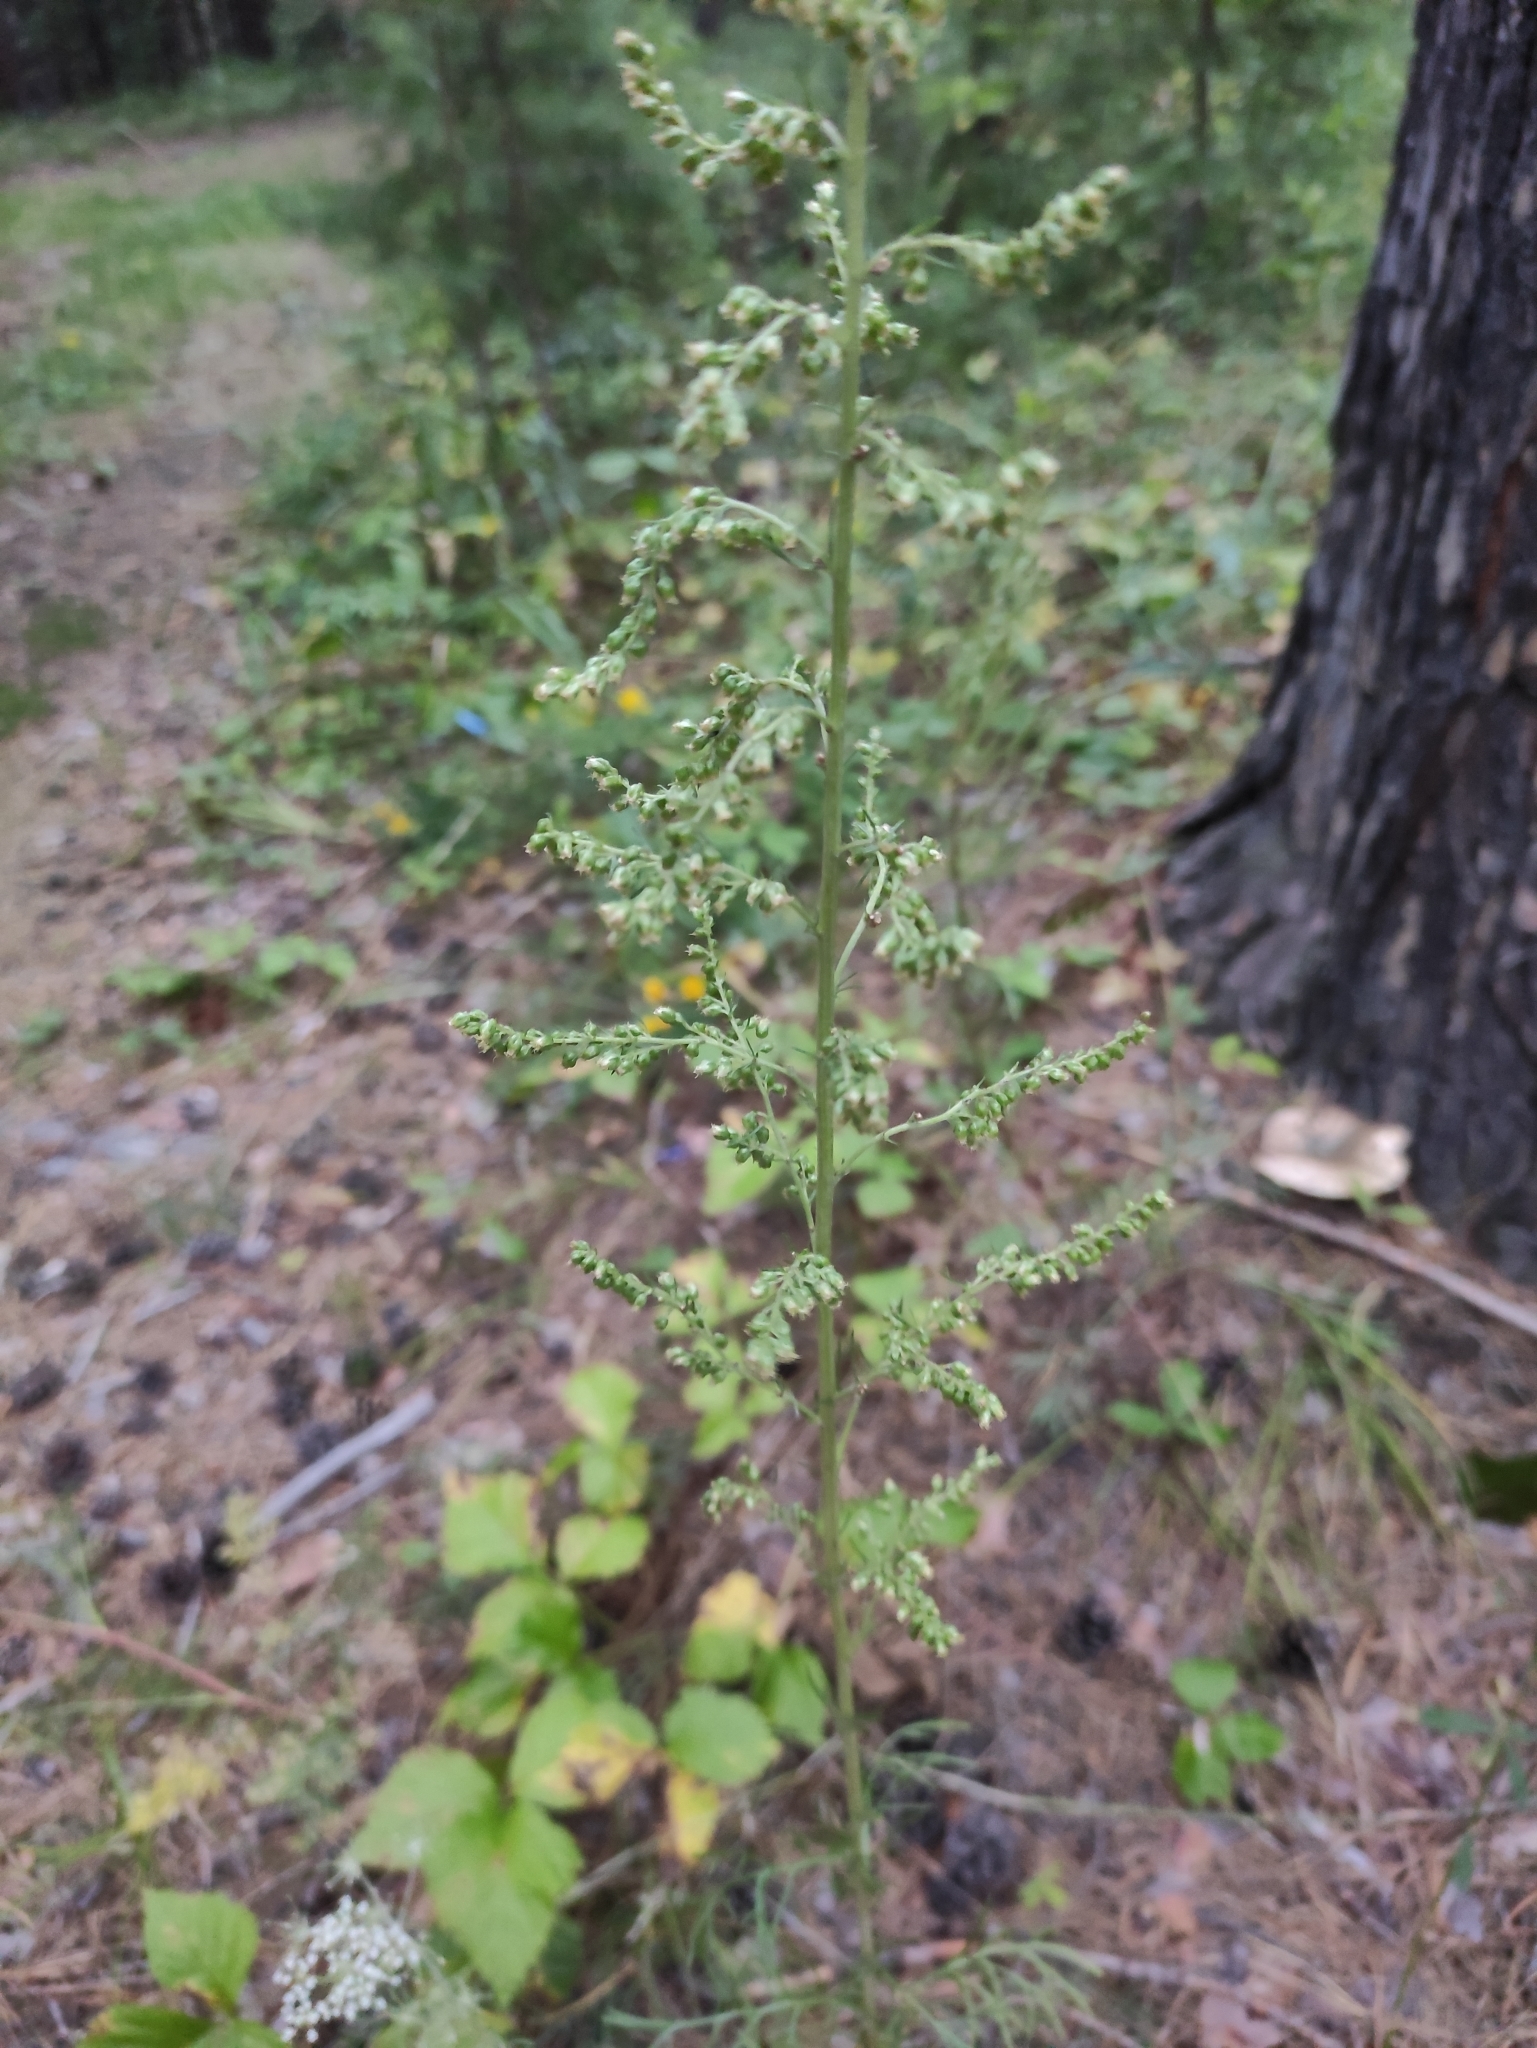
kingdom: Plantae
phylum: Tracheophyta
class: Magnoliopsida
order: Asterales
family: Asteraceae
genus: Artemisia
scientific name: Artemisia pubescens
